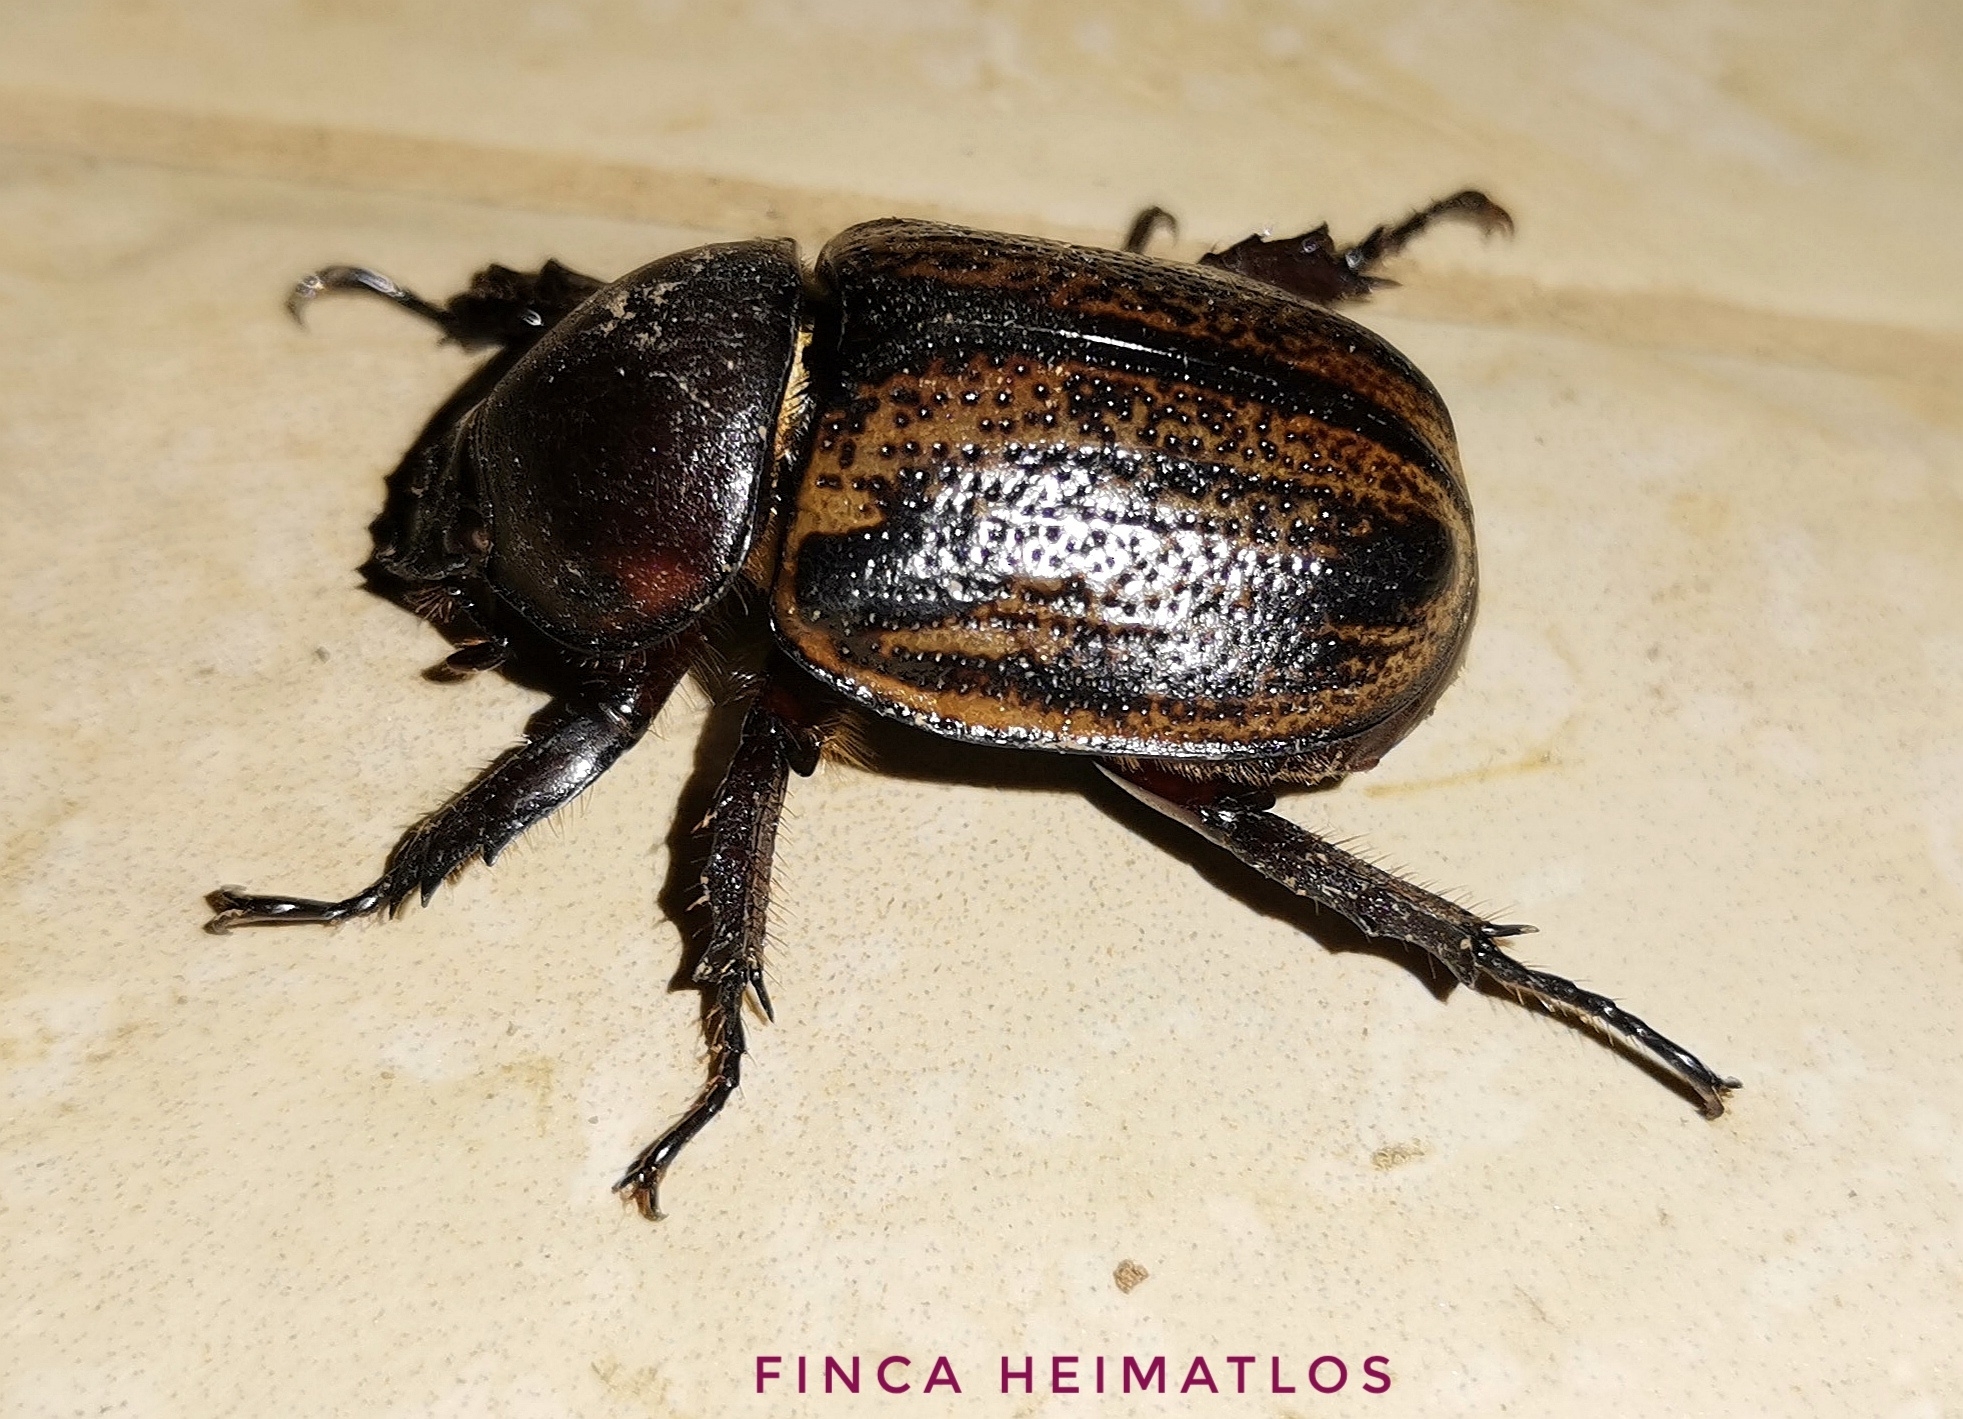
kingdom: Animalia
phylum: Arthropoda
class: Insecta
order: Coleoptera
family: Scarabaeidae
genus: Brachysiderus
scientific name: Brachysiderus quadrimaculatus
